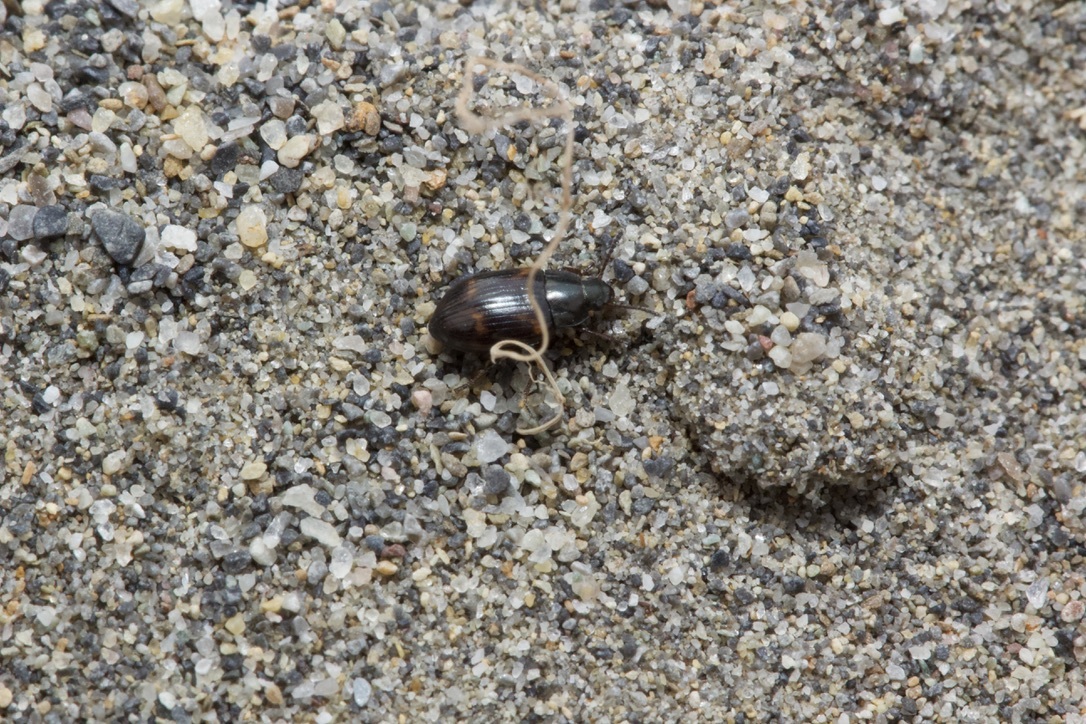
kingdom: Animalia
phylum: Arthropoda
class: Insecta
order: Coleoptera
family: Tenebrionidae
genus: Phaleromela
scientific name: Phaleromela variegata
